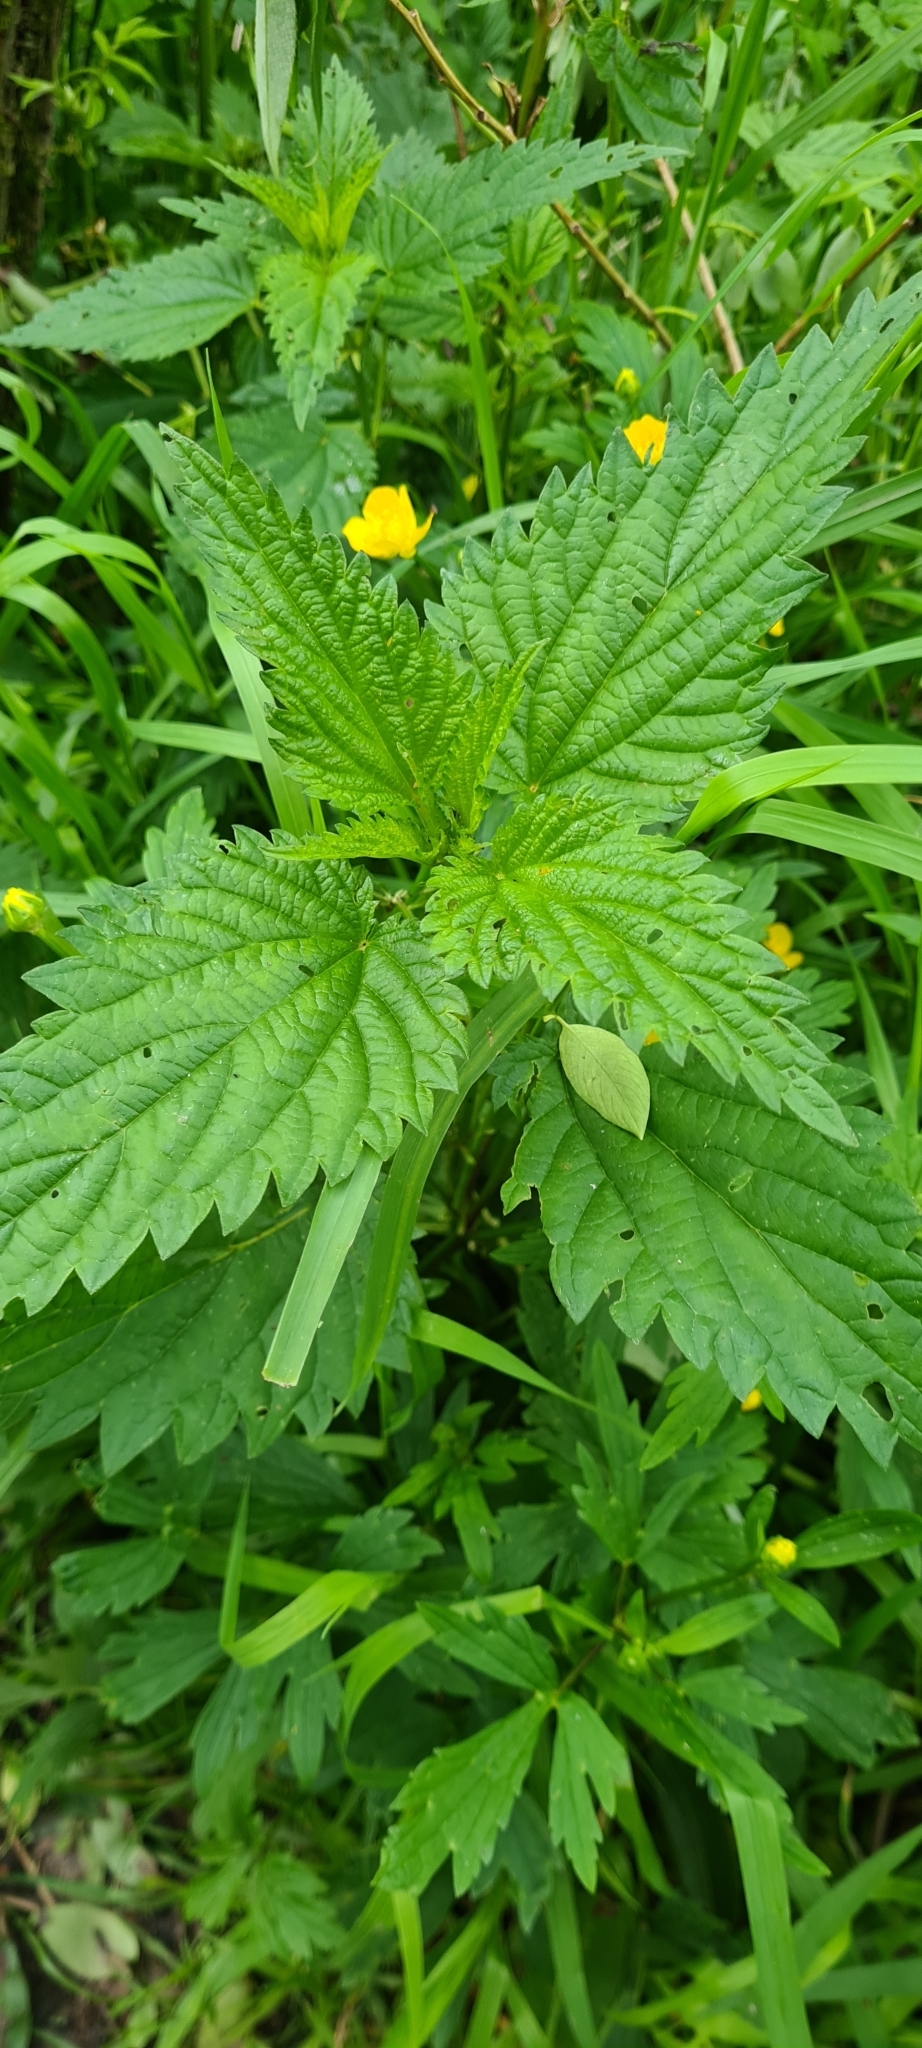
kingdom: Plantae
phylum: Tracheophyta
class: Magnoliopsida
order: Rosales
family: Urticaceae
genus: Urtica
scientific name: Urtica dioica
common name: Common nettle
